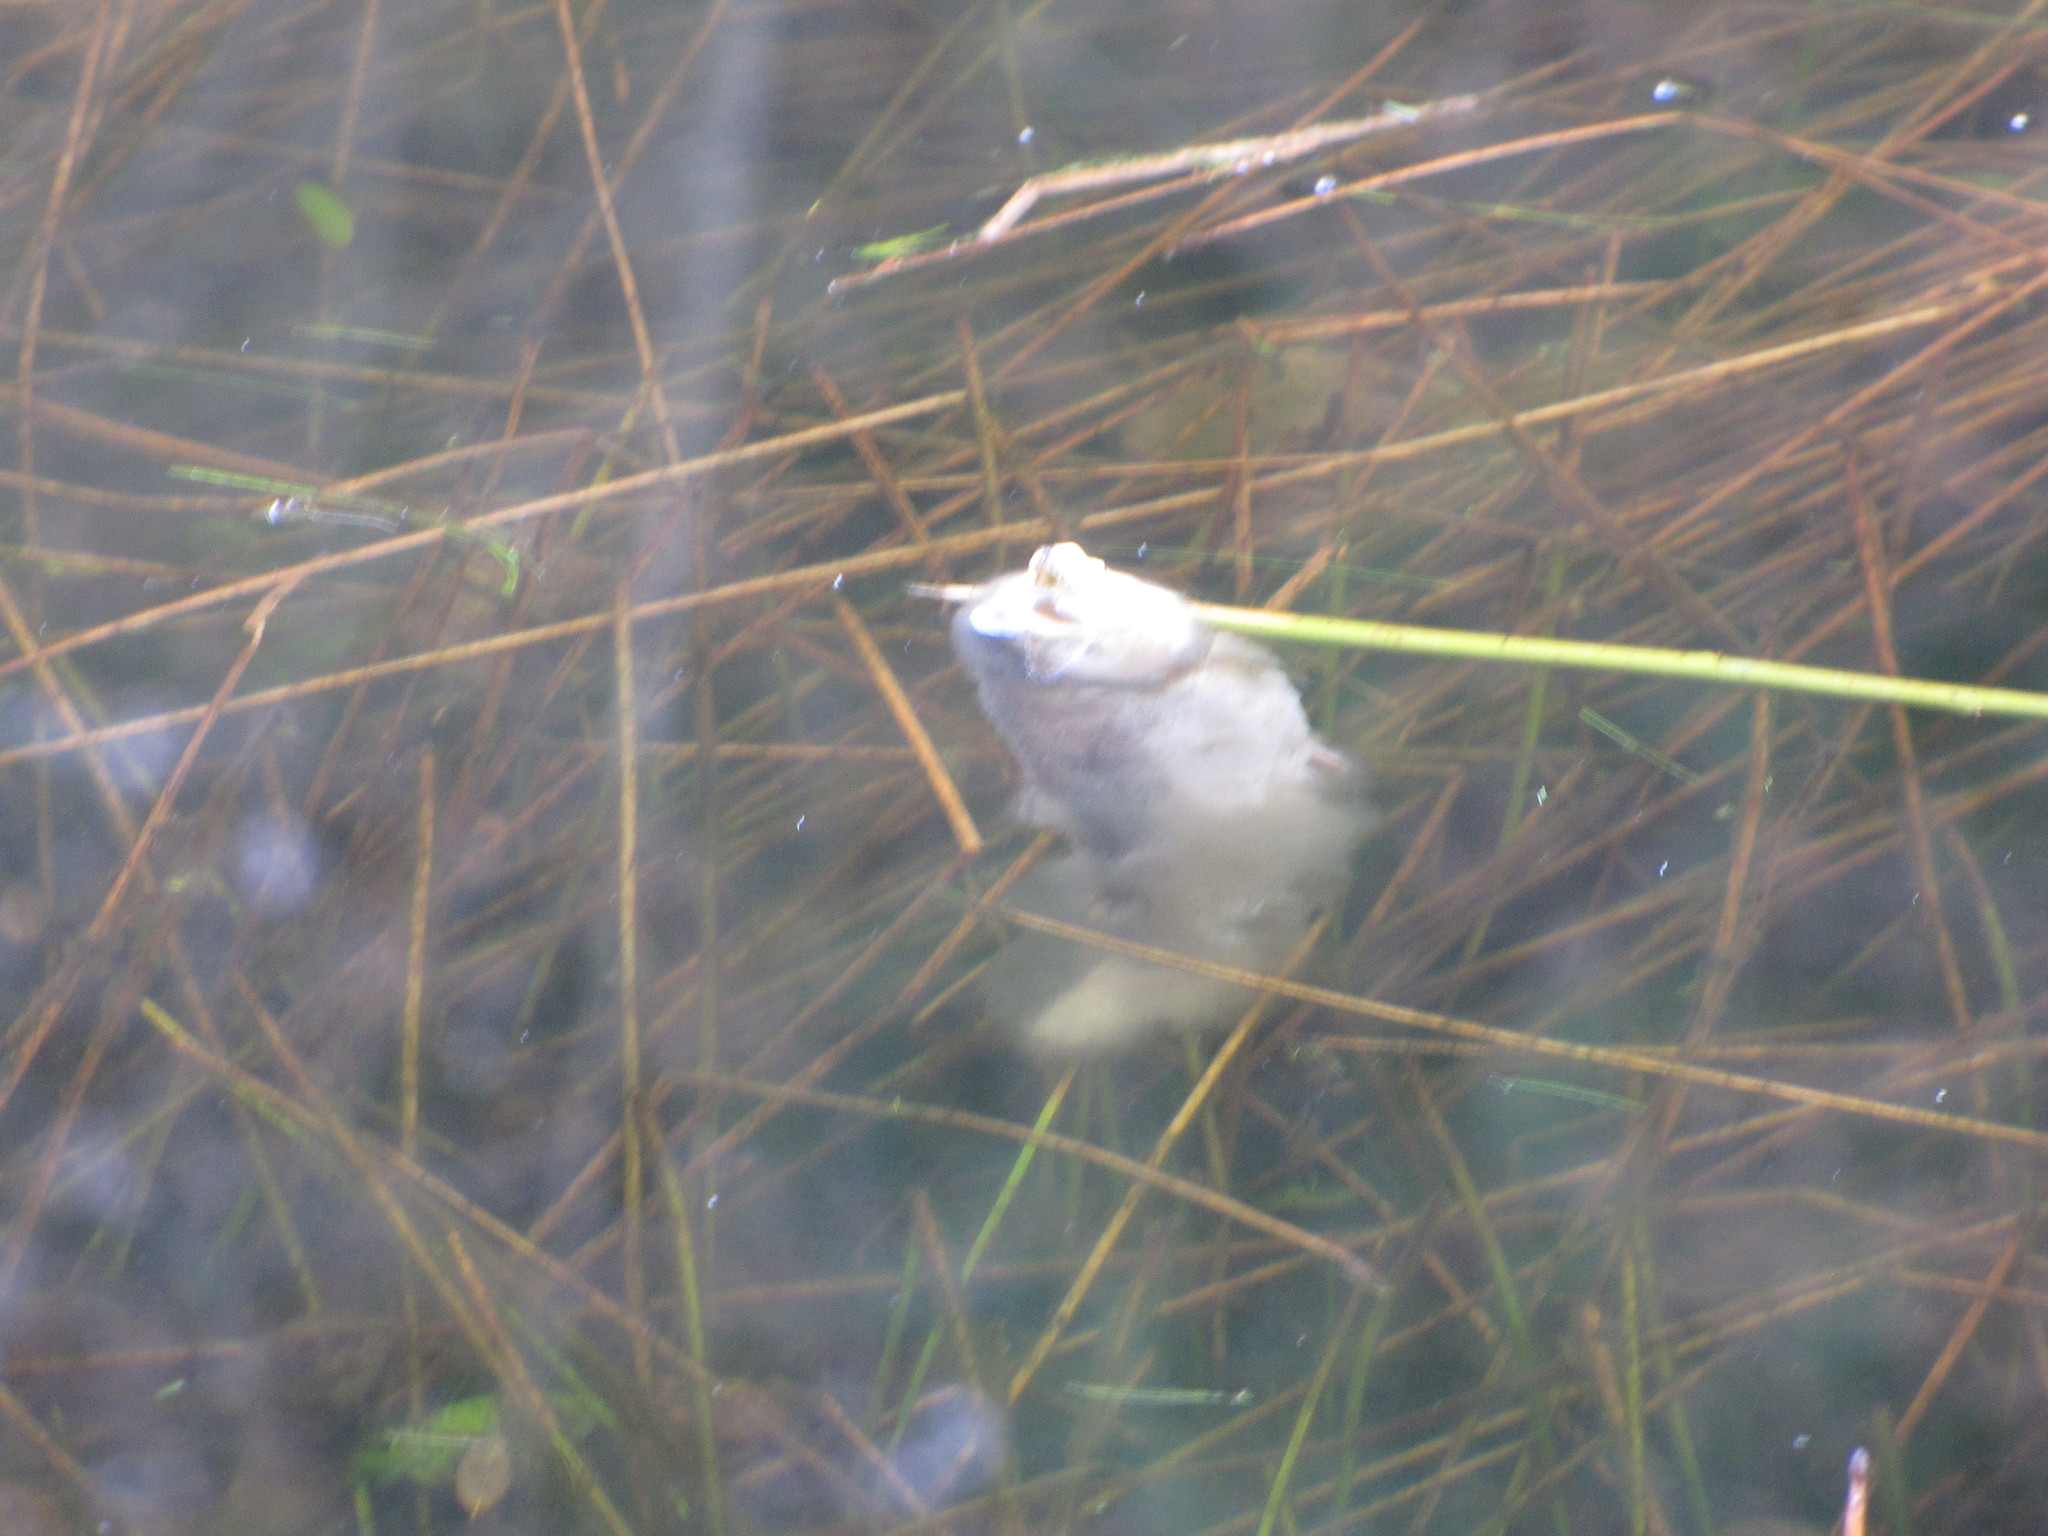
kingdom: Animalia
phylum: Chordata
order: Salmoniformes
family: Salmonidae
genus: Oncorhynchus
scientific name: Oncorhynchus mykiss
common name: Rainbow trout
